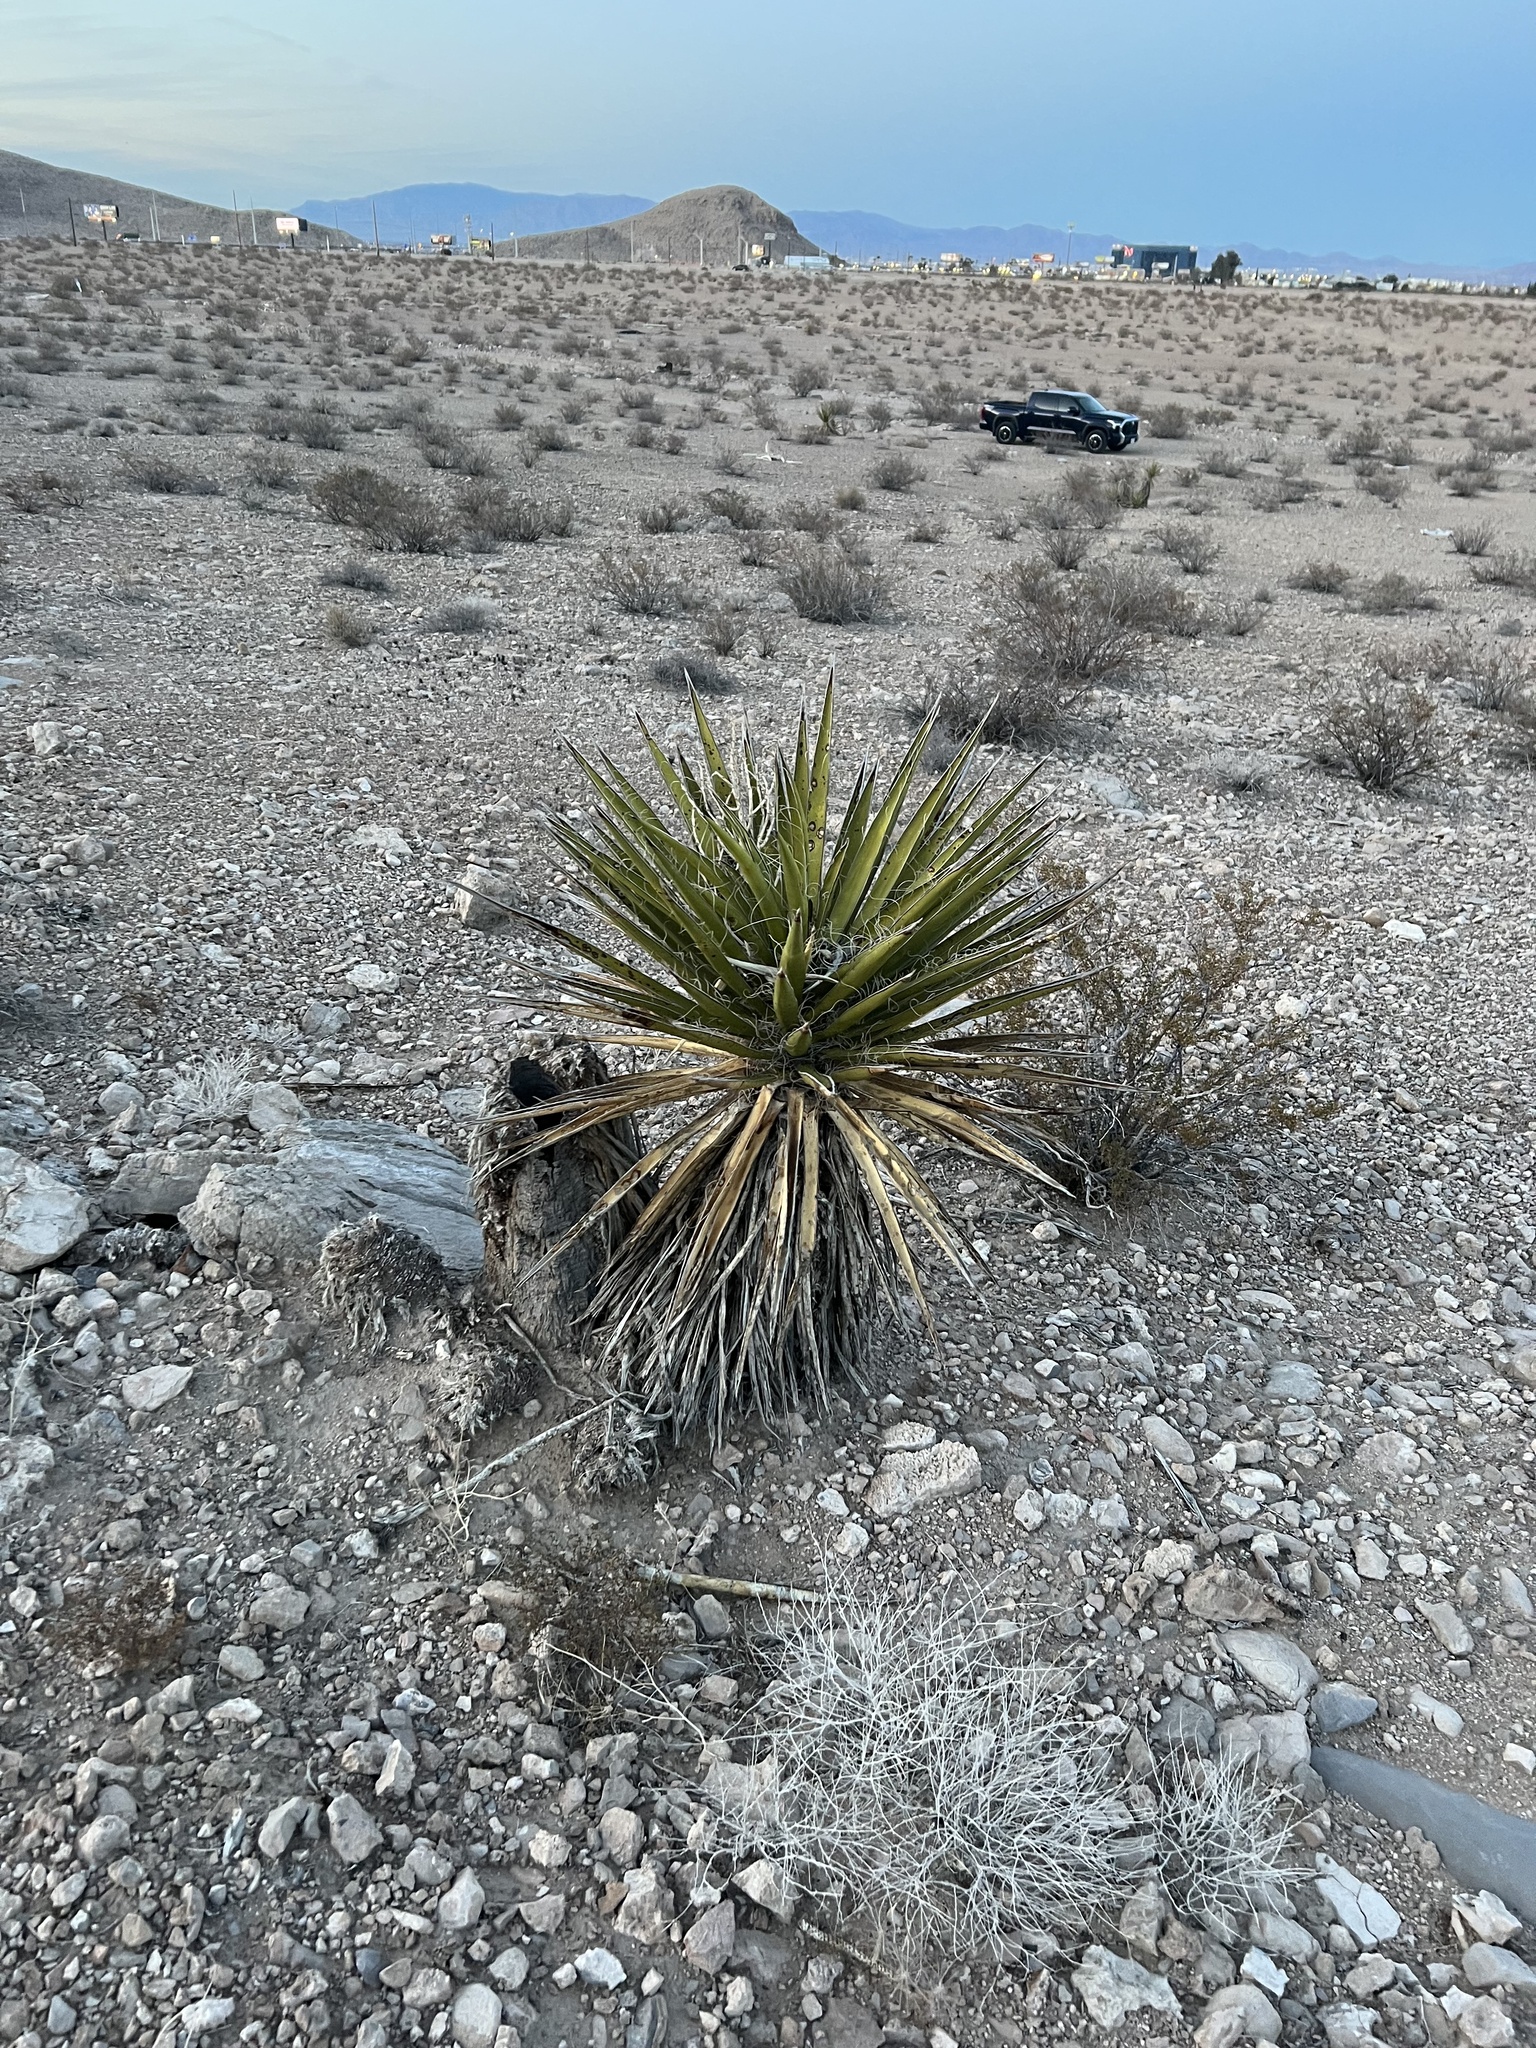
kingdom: Plantae
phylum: Tracheophyta
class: Liliopsida
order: Asparagales
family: Asparagaceae
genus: Yucca
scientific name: Yucca schidigera
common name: Mojave yucca
